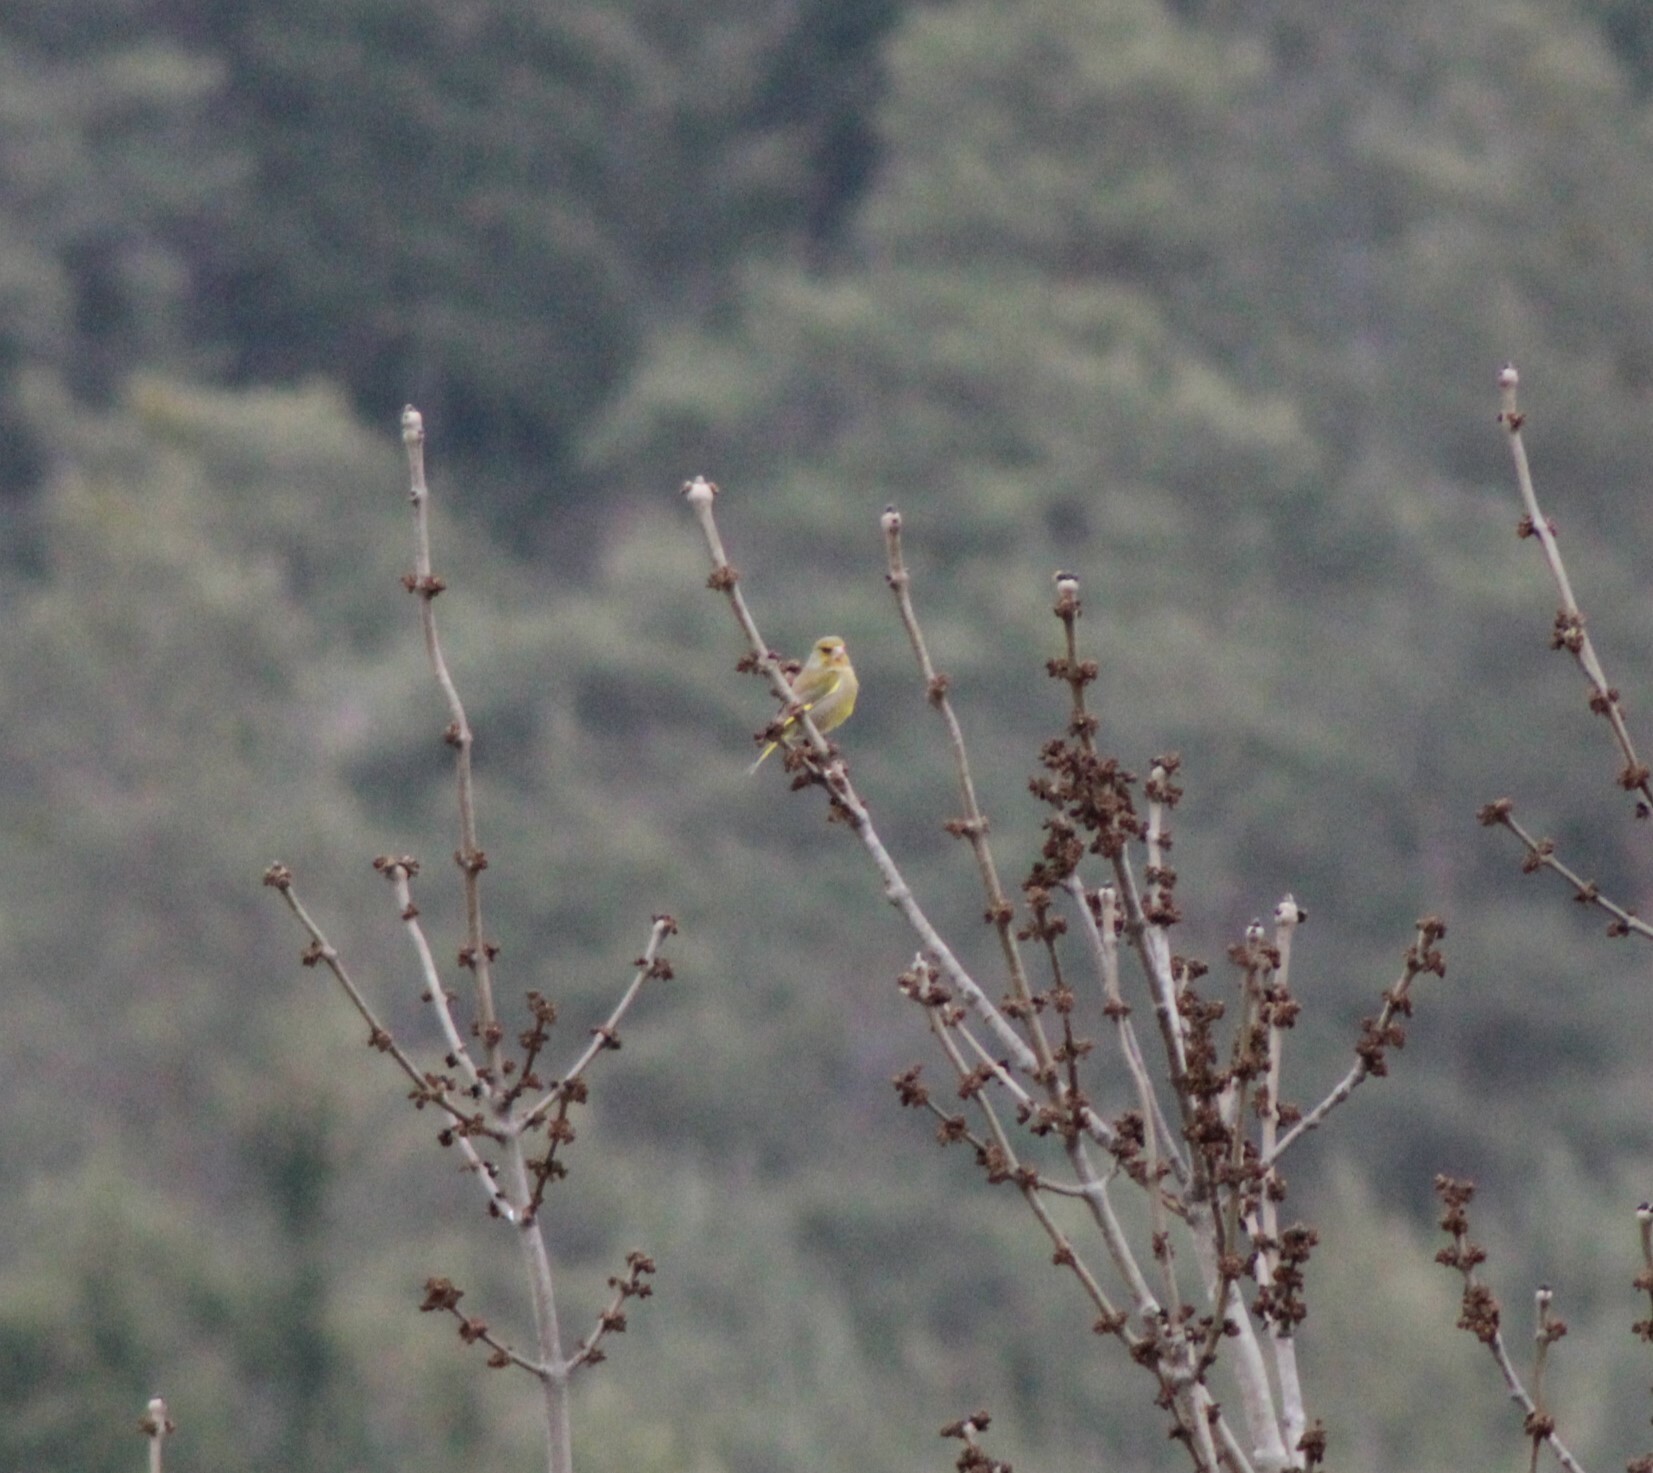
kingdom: Plantae
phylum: Tracheophyta
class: Liliopsida
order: Poales
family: Poaceae
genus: Chloris
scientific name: Chloris chloris
